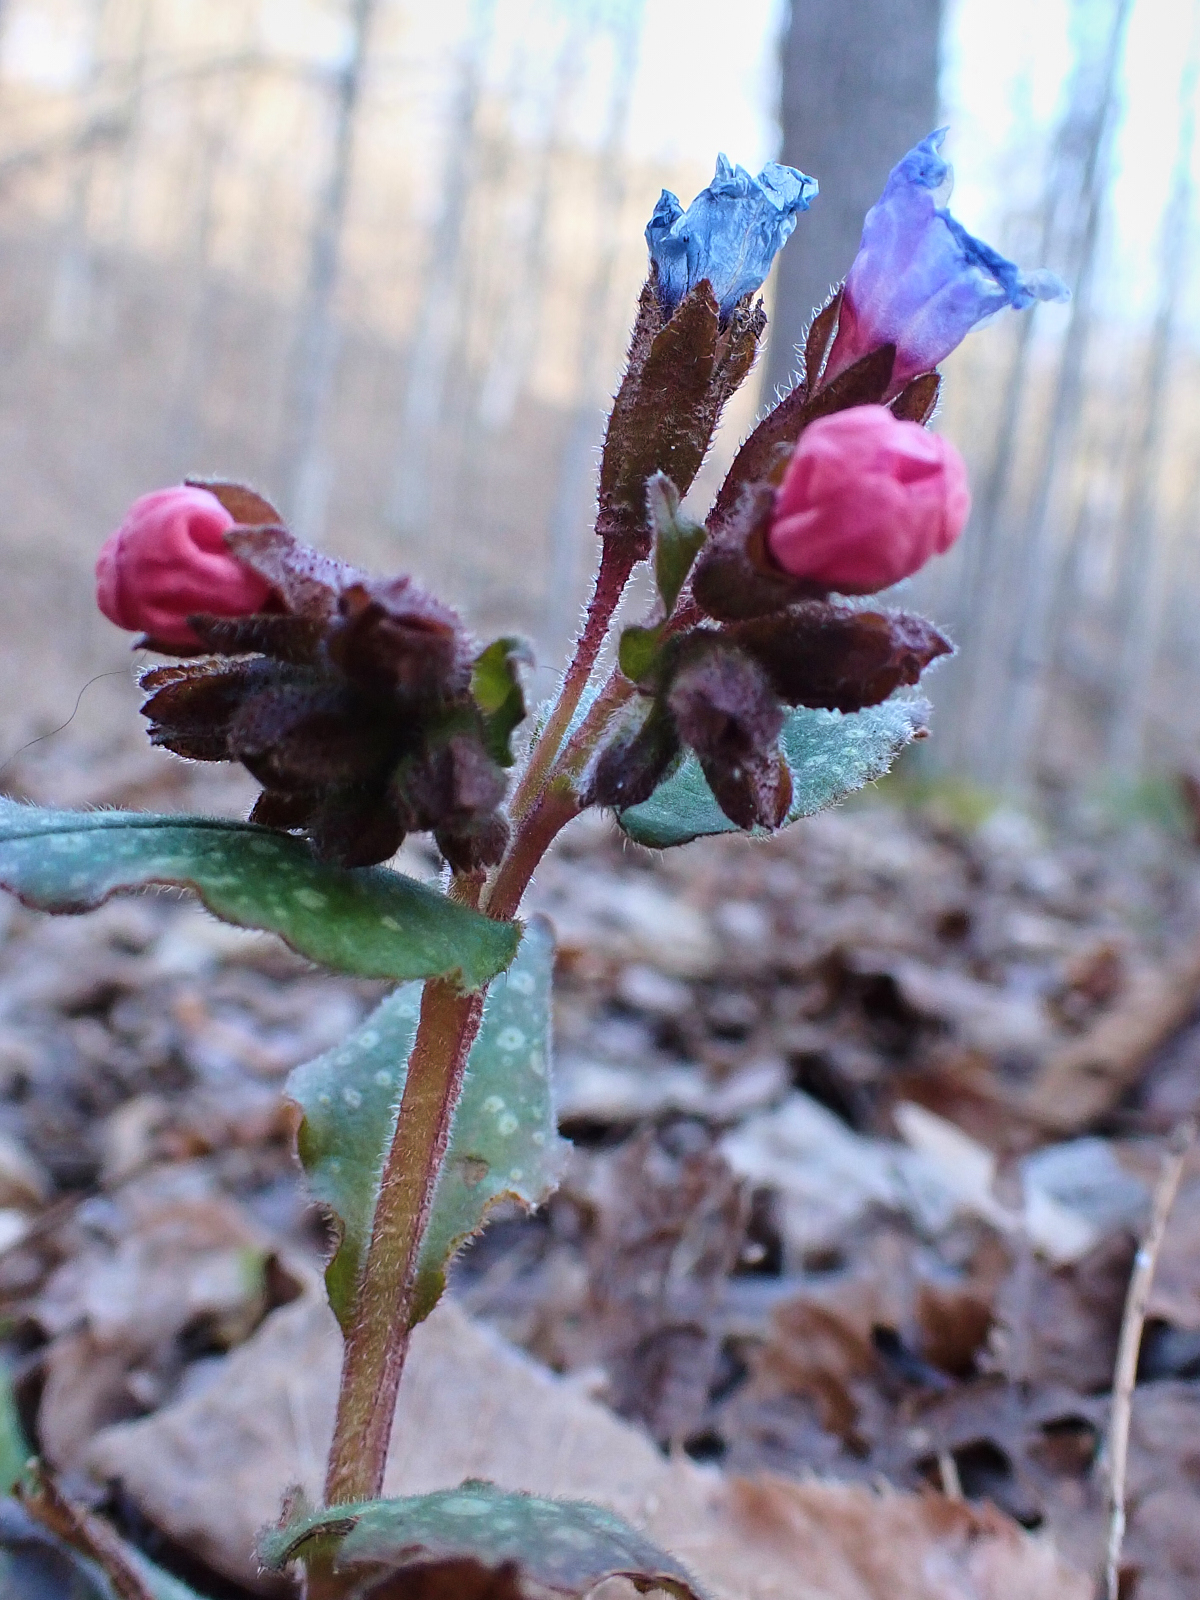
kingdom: Plantae
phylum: Tracheophyta
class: Magnoliopsida
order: Boraginales
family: Boraginaceae
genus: Pulmonaria
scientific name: Pulmonaria officinalis
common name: Lungwort
